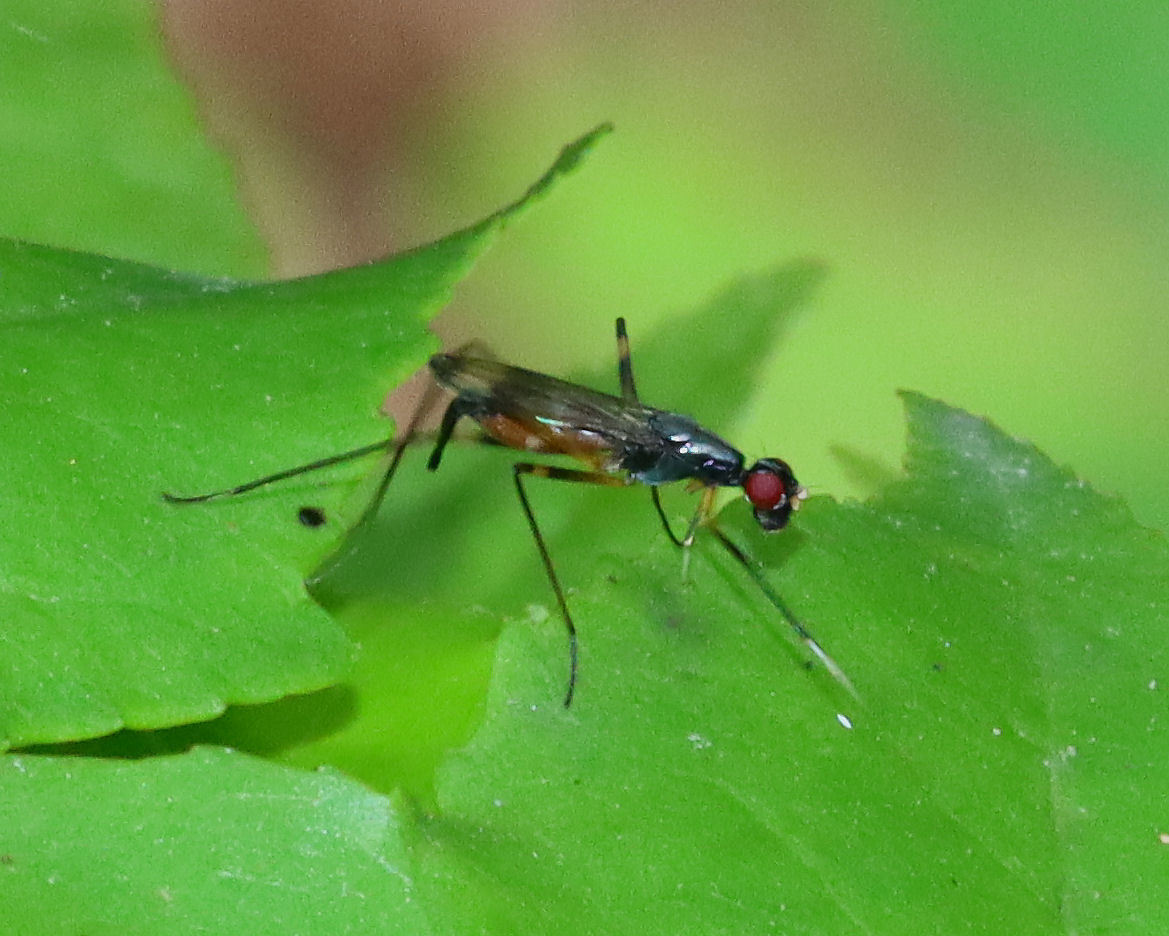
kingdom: Animalia
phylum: Arthropoda
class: Insecta
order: Diptera
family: Micropezidae
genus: Rainieria
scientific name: Rainieria antennaepes
